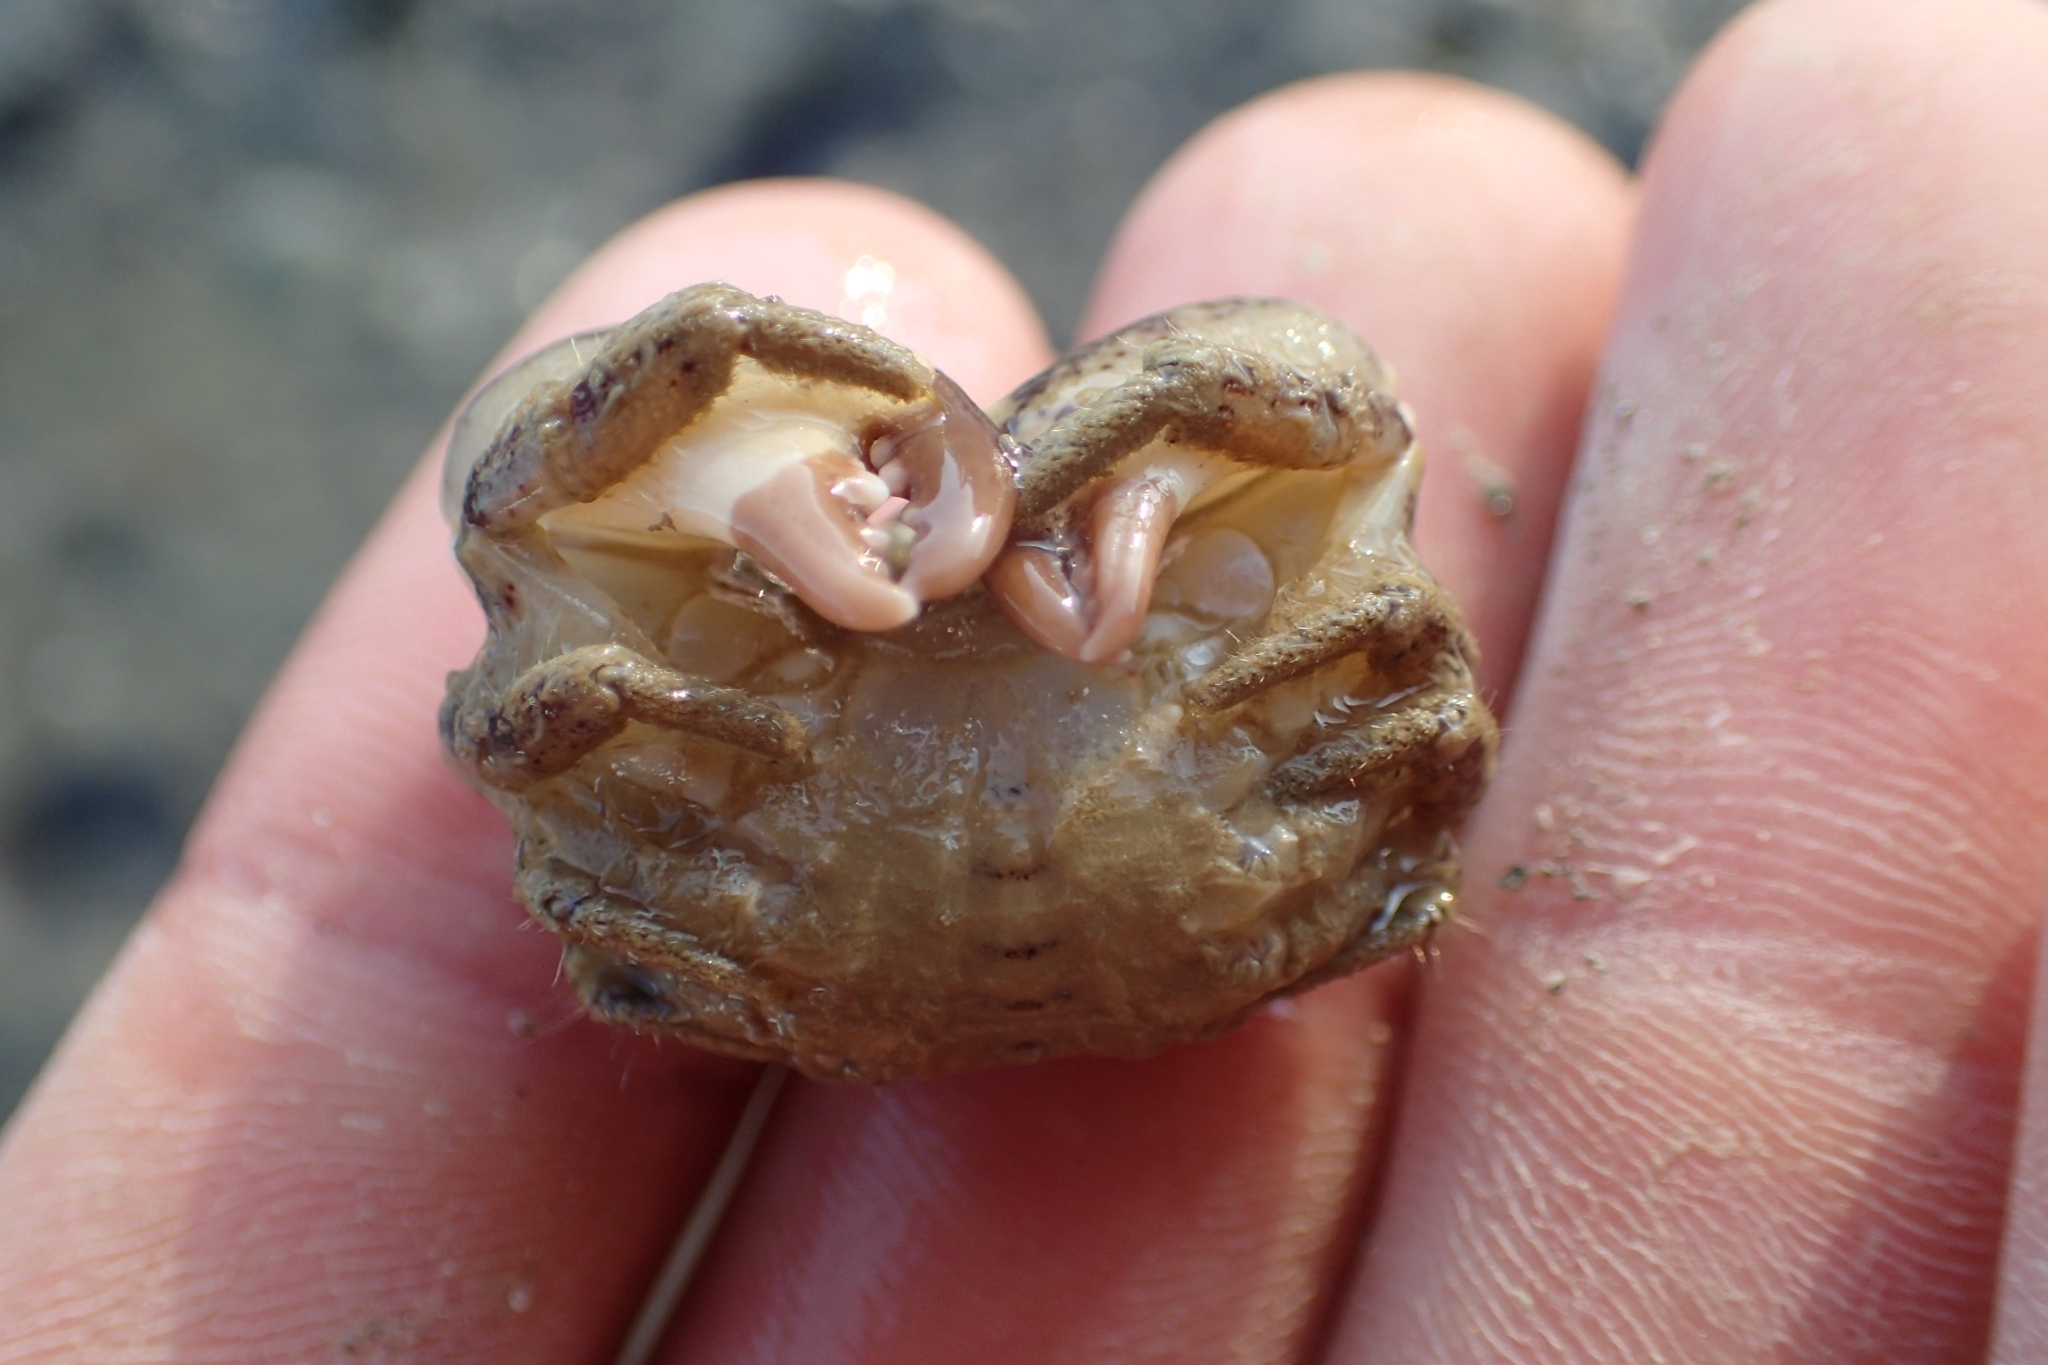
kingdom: Animalia
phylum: Arthropoda
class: Malacostraca
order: Decapoda
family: Pilumnidae
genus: Pilumnopeus
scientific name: Pilumnopeus serratifrons
